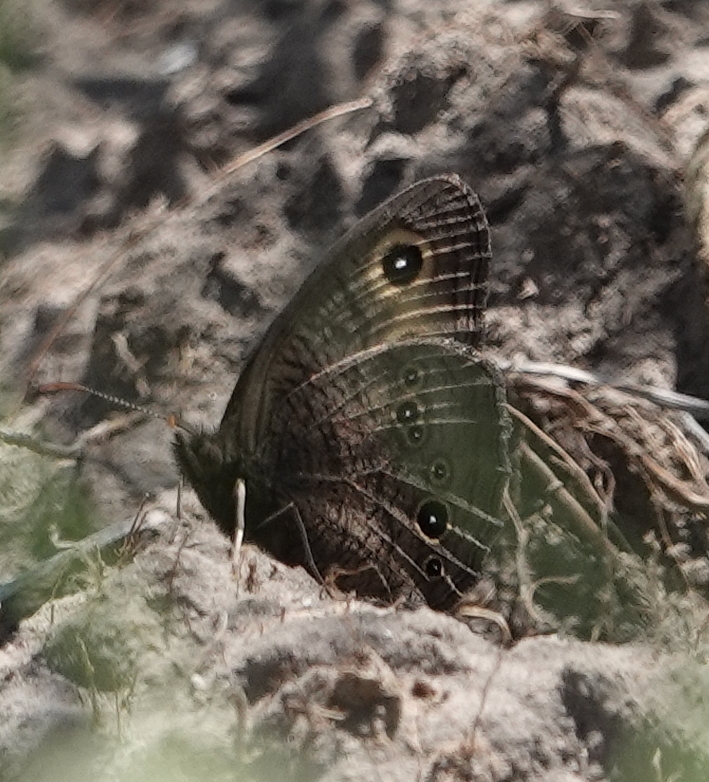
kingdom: Animalia
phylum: Arthropoda
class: Insecta
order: Lepidoptera
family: Nymphalidae
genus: Cercyonis
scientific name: Cercyonis pegala
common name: Common wood-nymph
